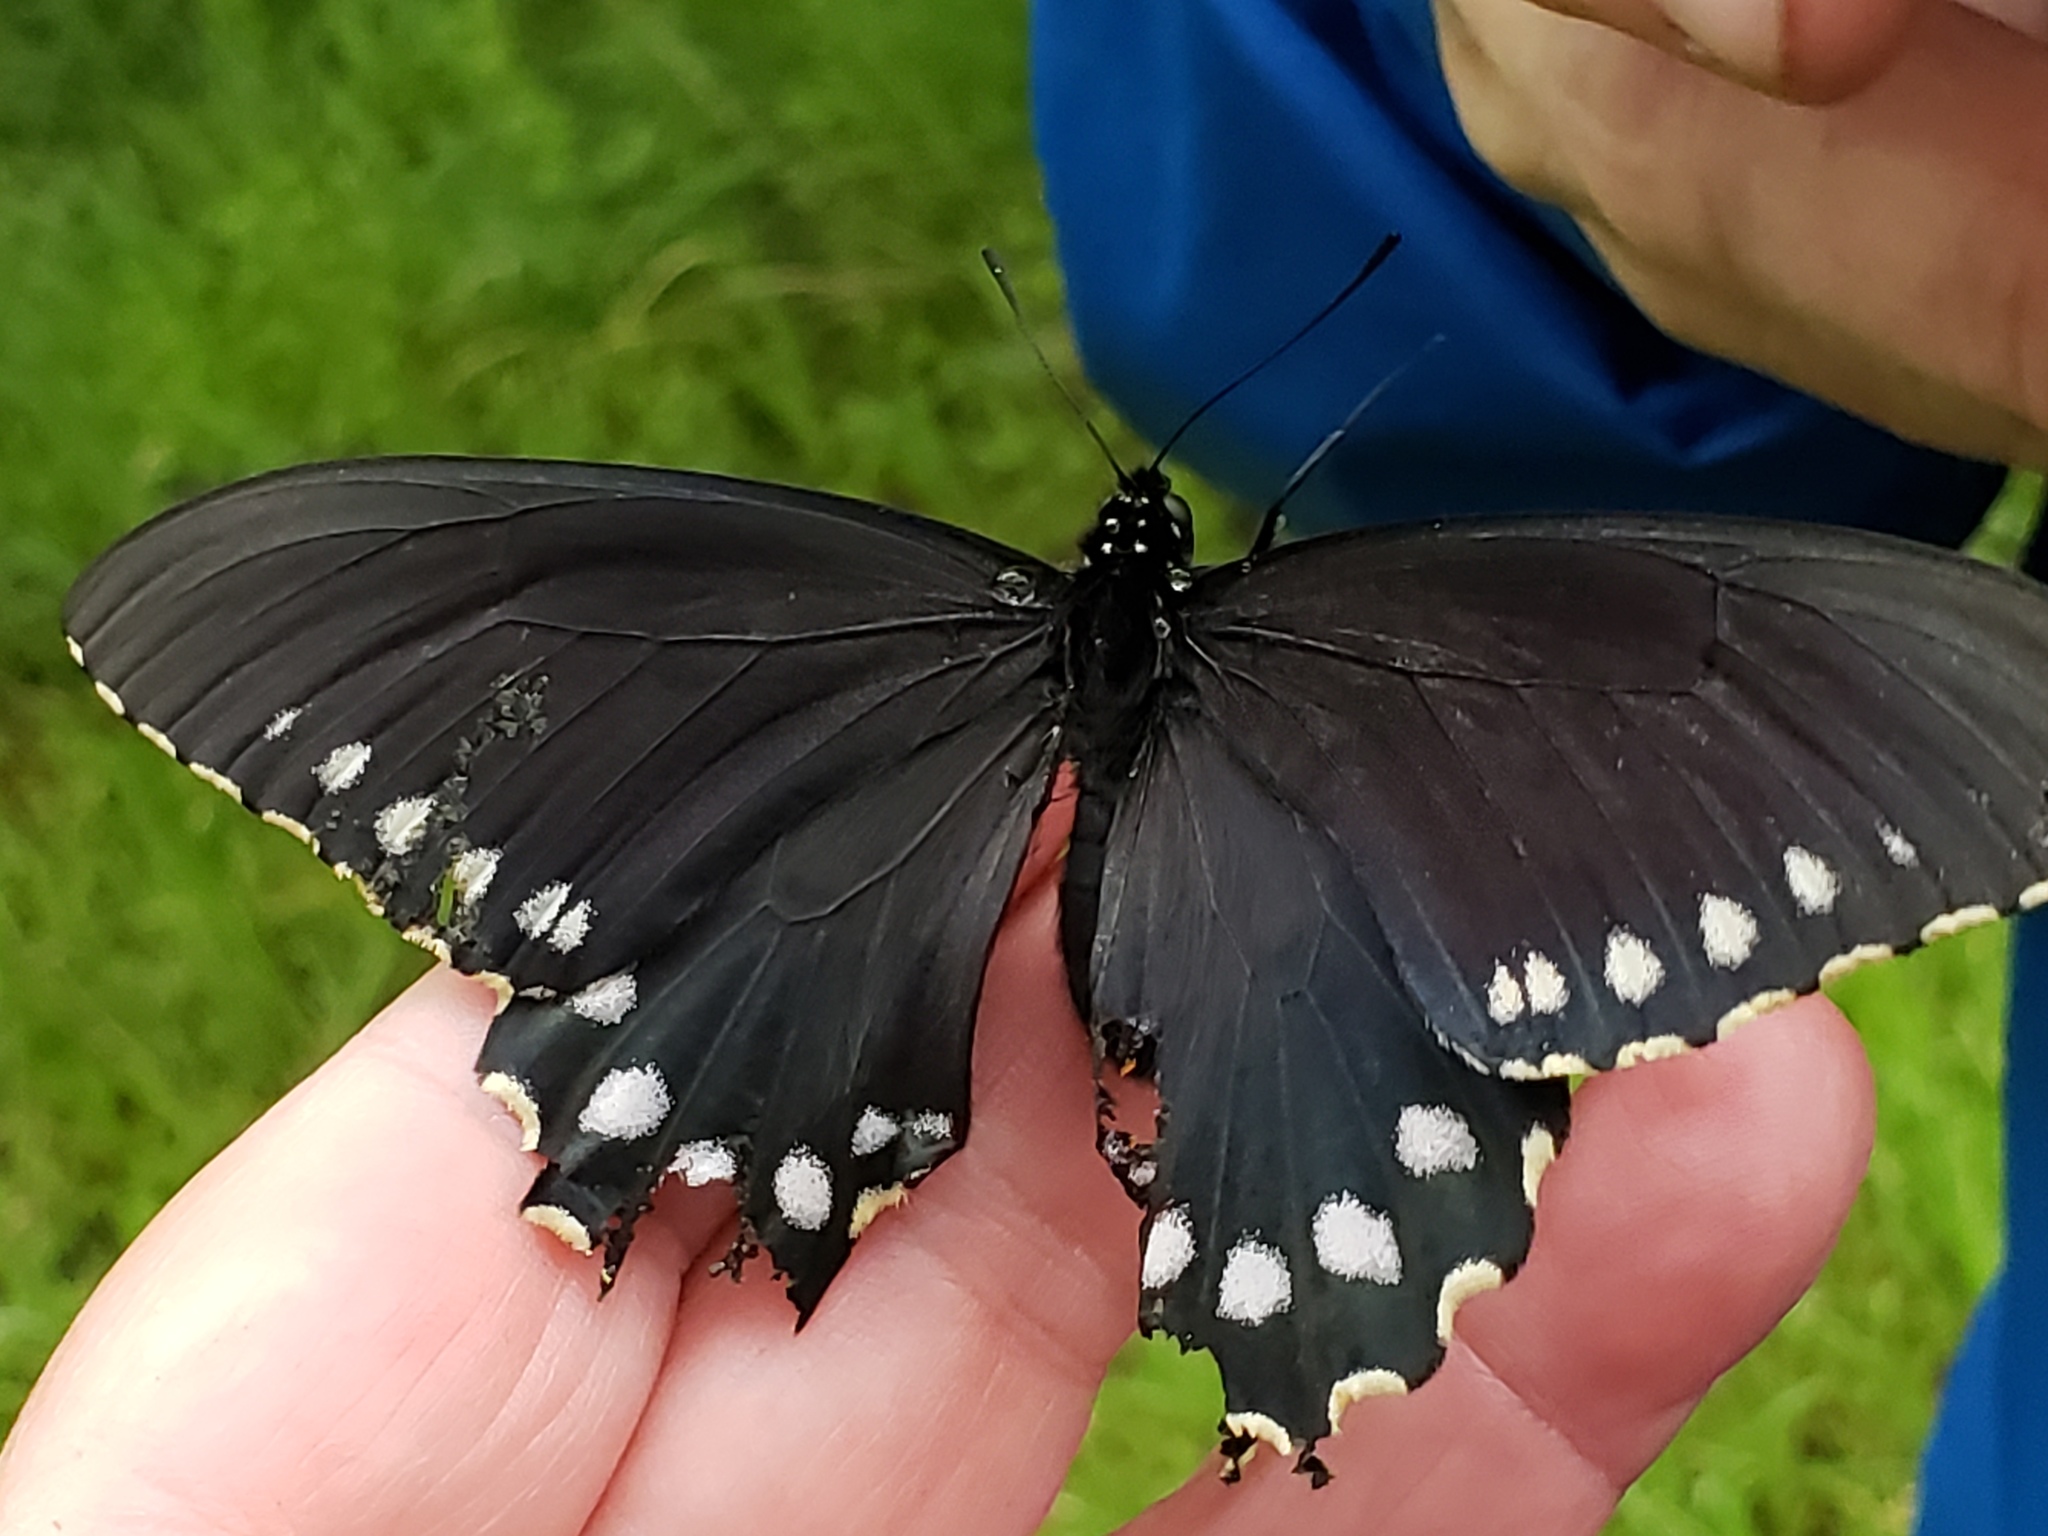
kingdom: Animalia
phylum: Arthropoda
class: Insecta
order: Lepidoptera
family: Papilionidae
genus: Battus
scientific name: Battus philenor
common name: Pipevine swallowtail
